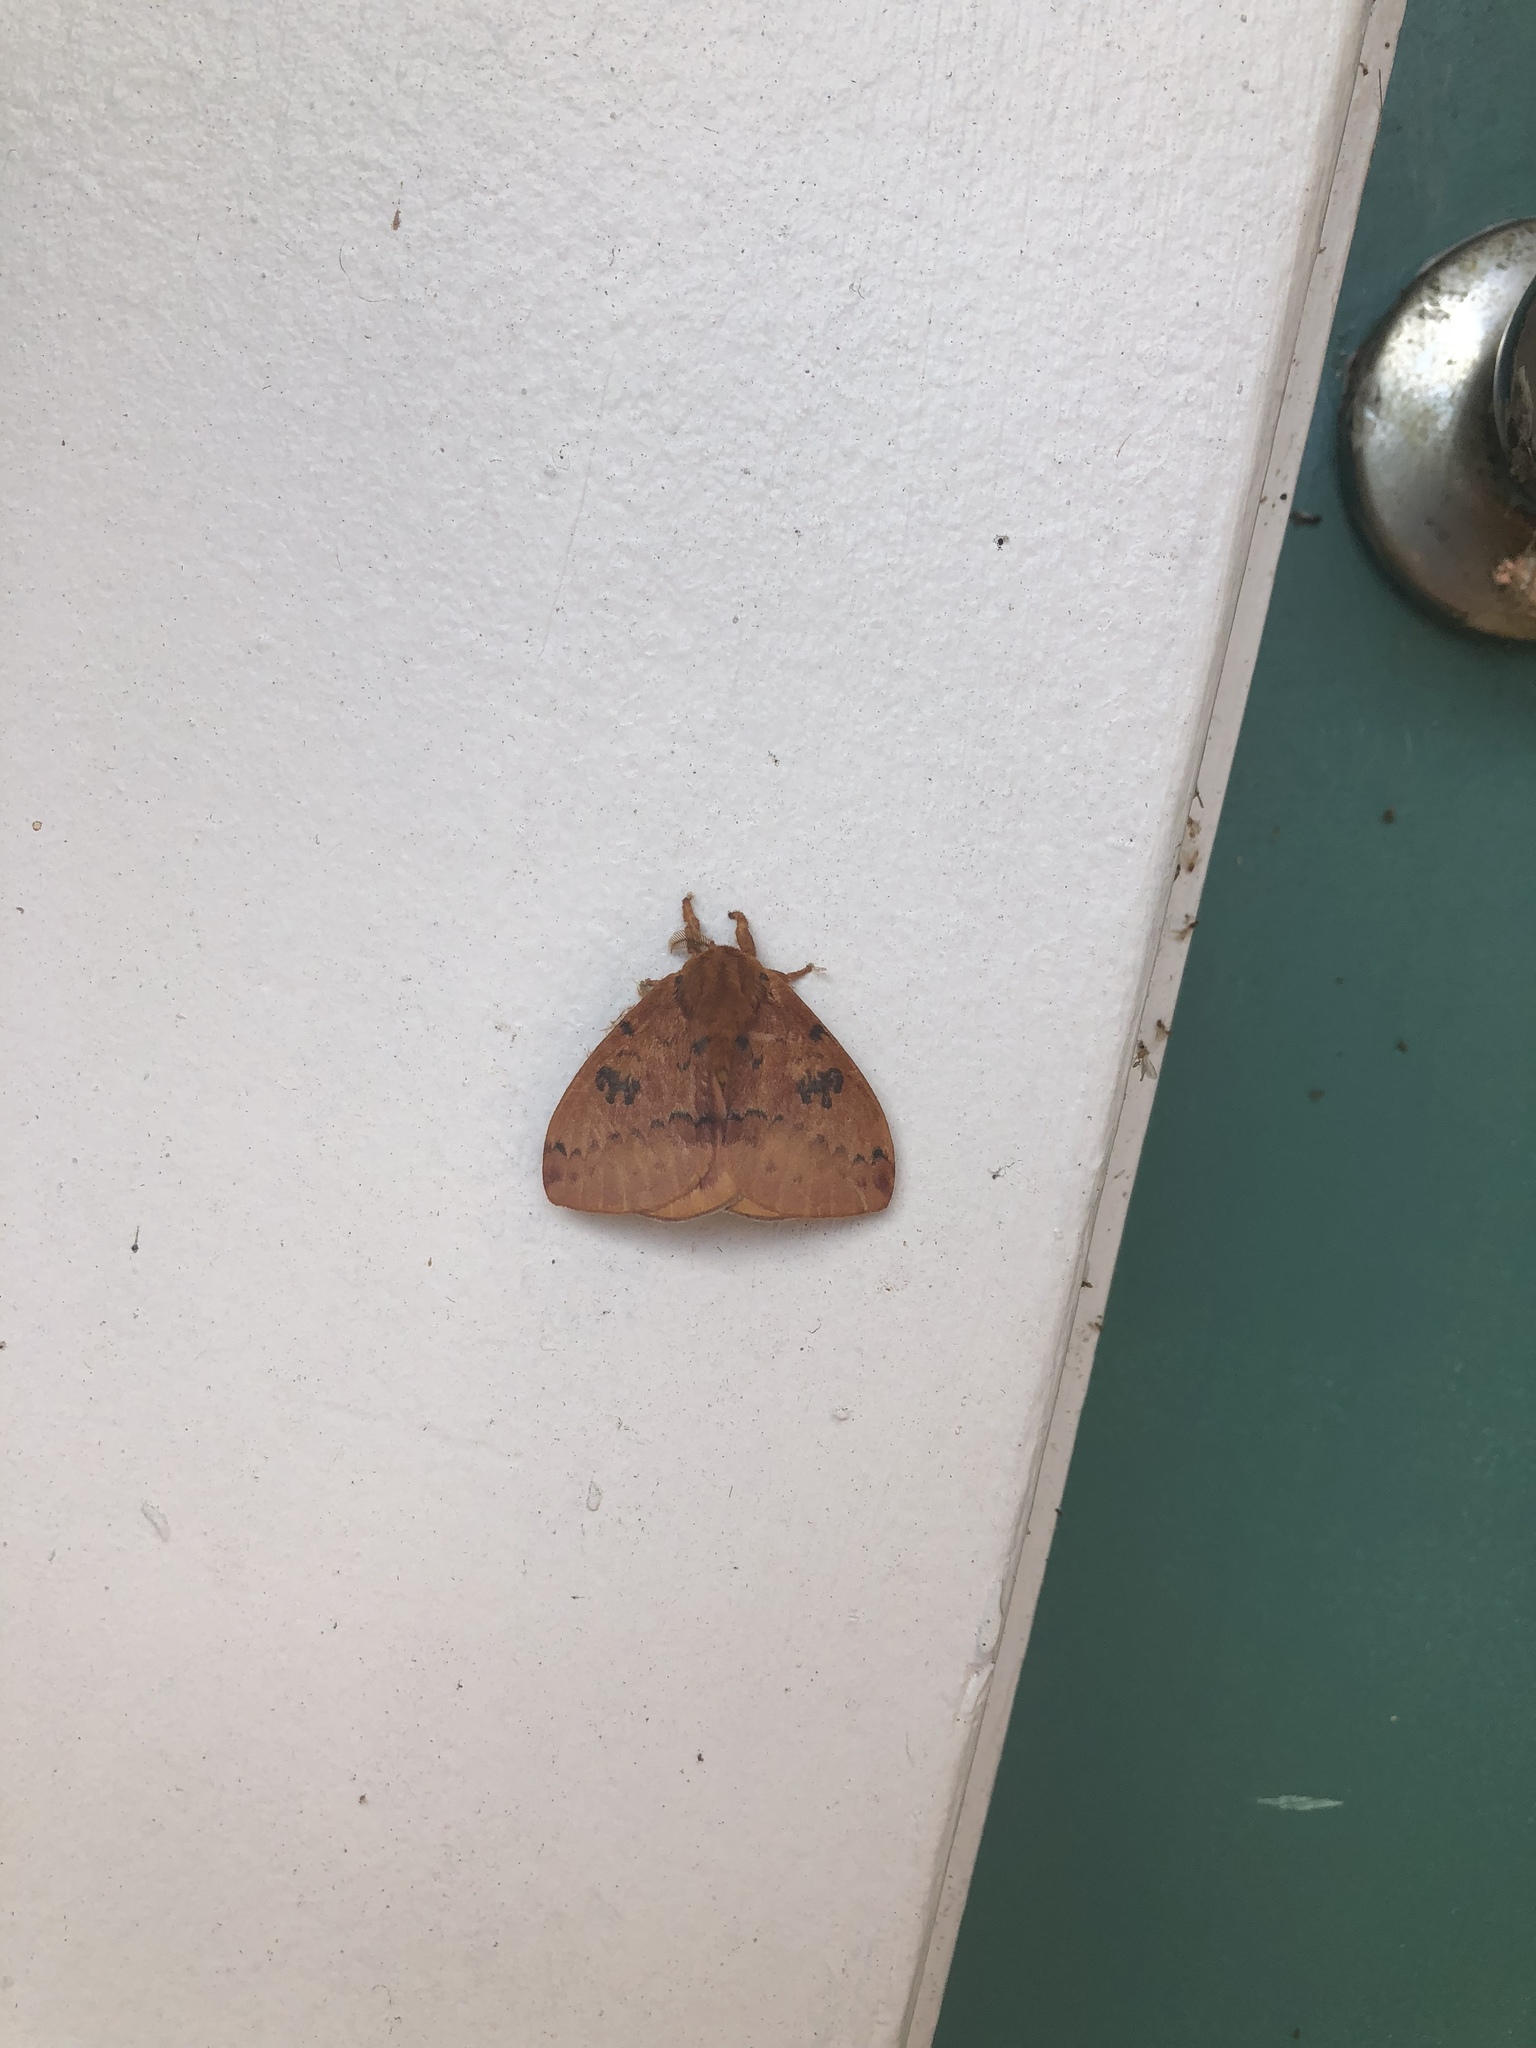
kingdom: Animalia
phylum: Arthropoda
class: Insecta
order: Lepidoptera
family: Saturniidae
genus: Automeris
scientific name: Automeris io
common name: Io moth
